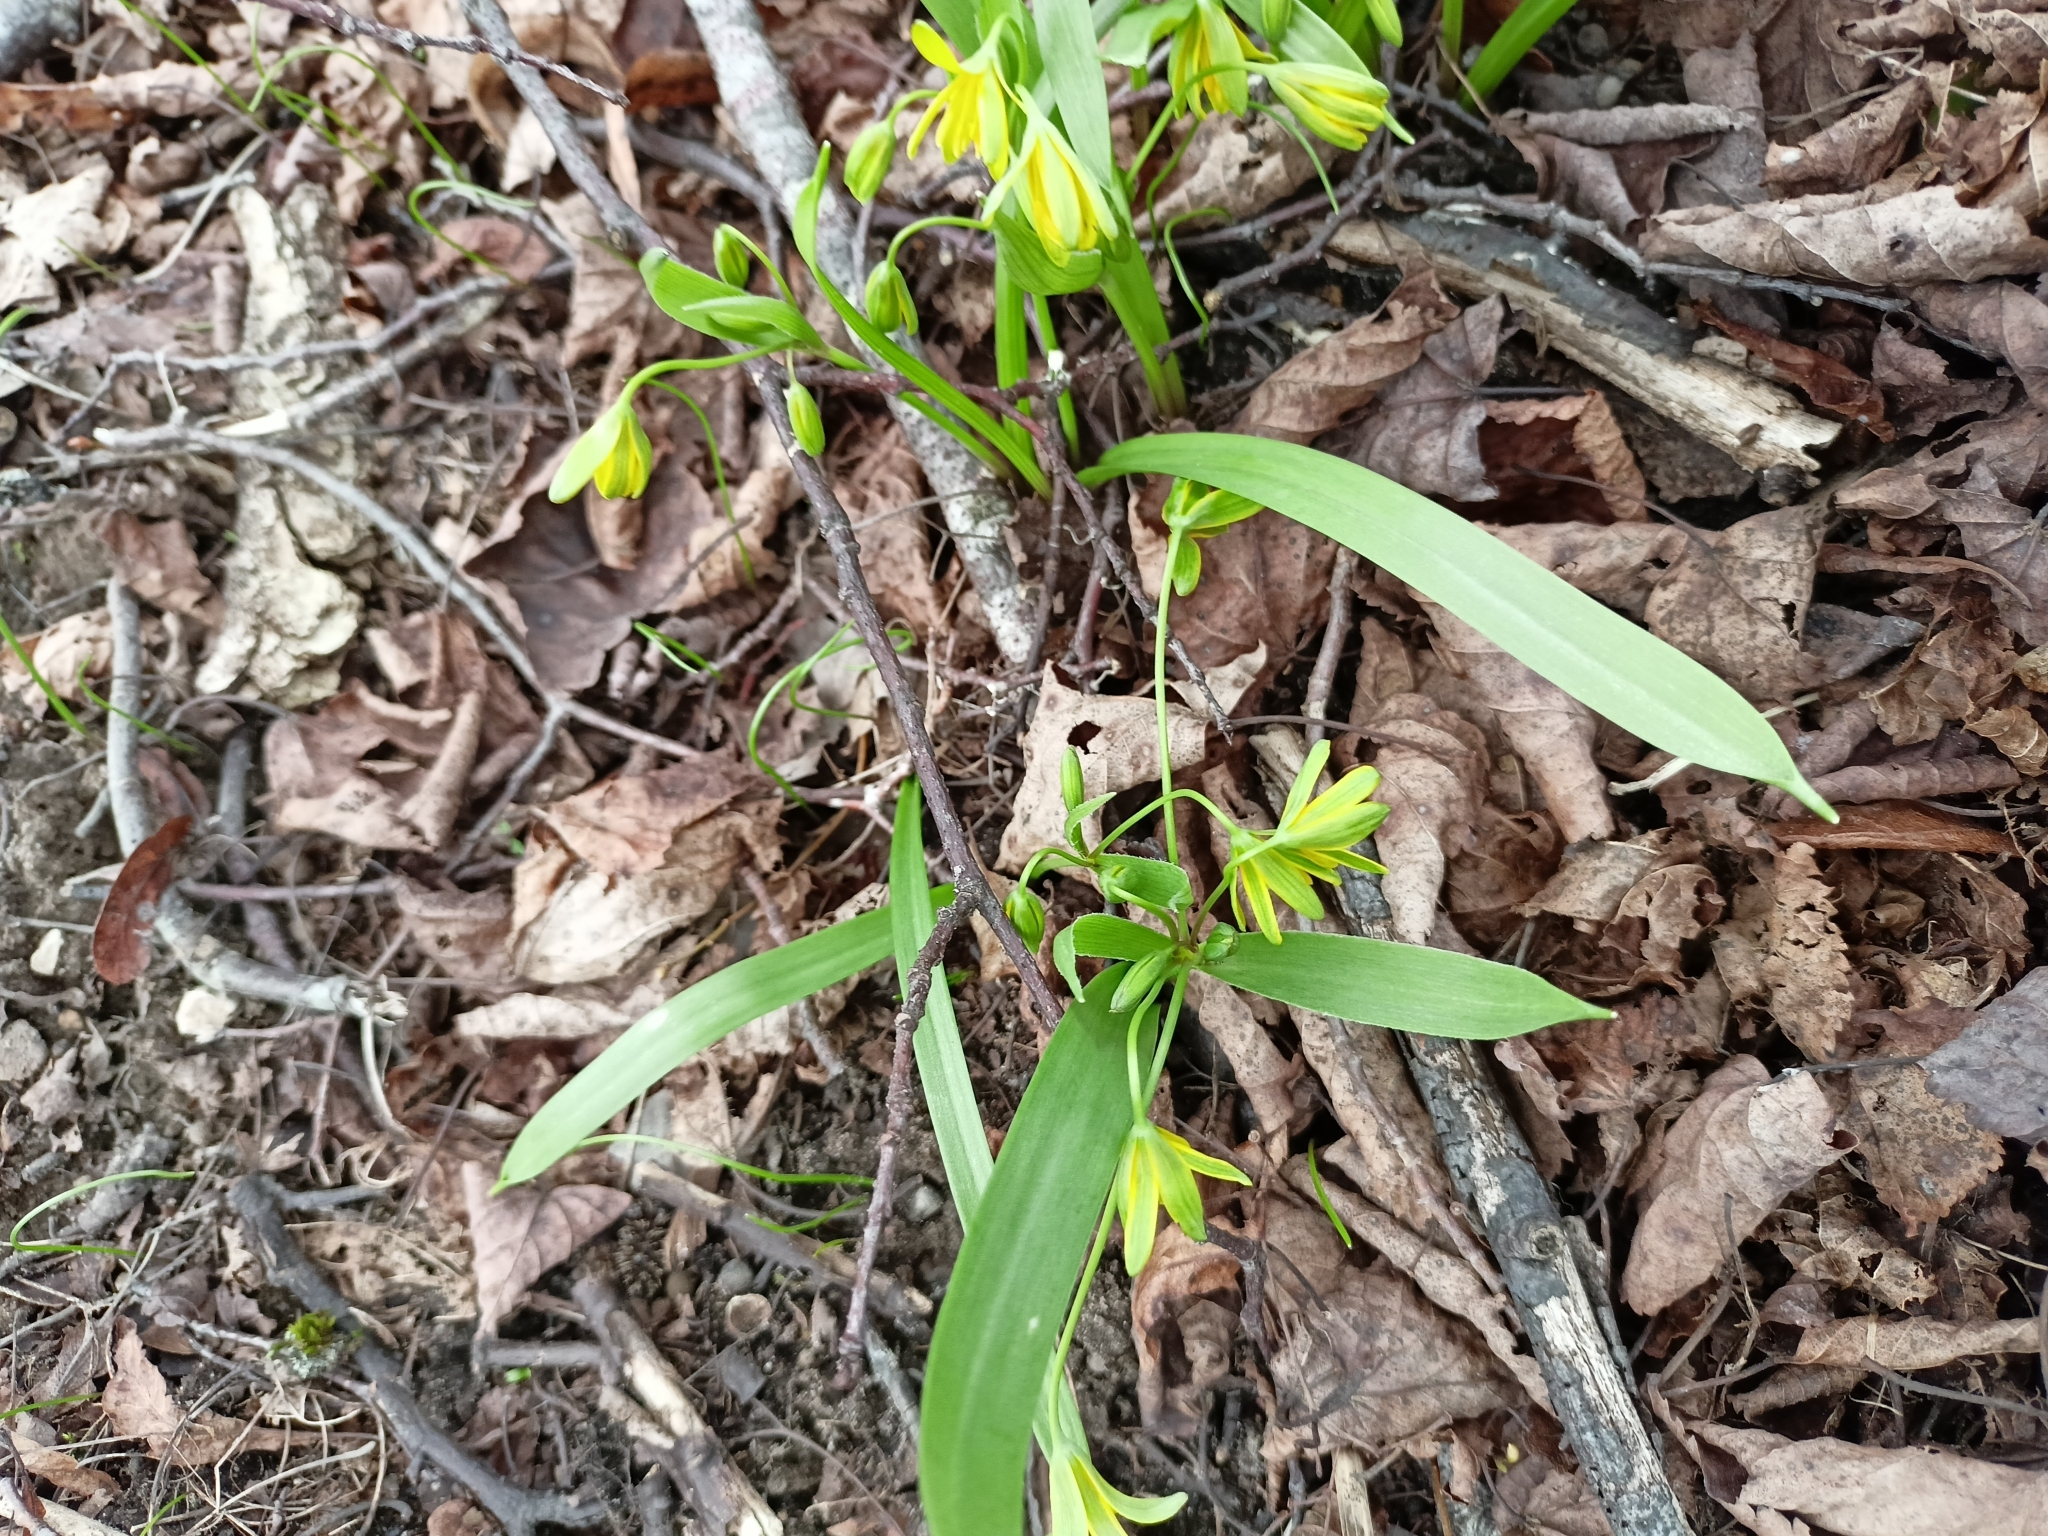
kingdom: Plantae
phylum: Tracheophyta
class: Liliopsida
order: Liliales
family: Liliaceae
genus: Gagea
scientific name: Gagea lutea
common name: Yellow star-of-bethlehem
